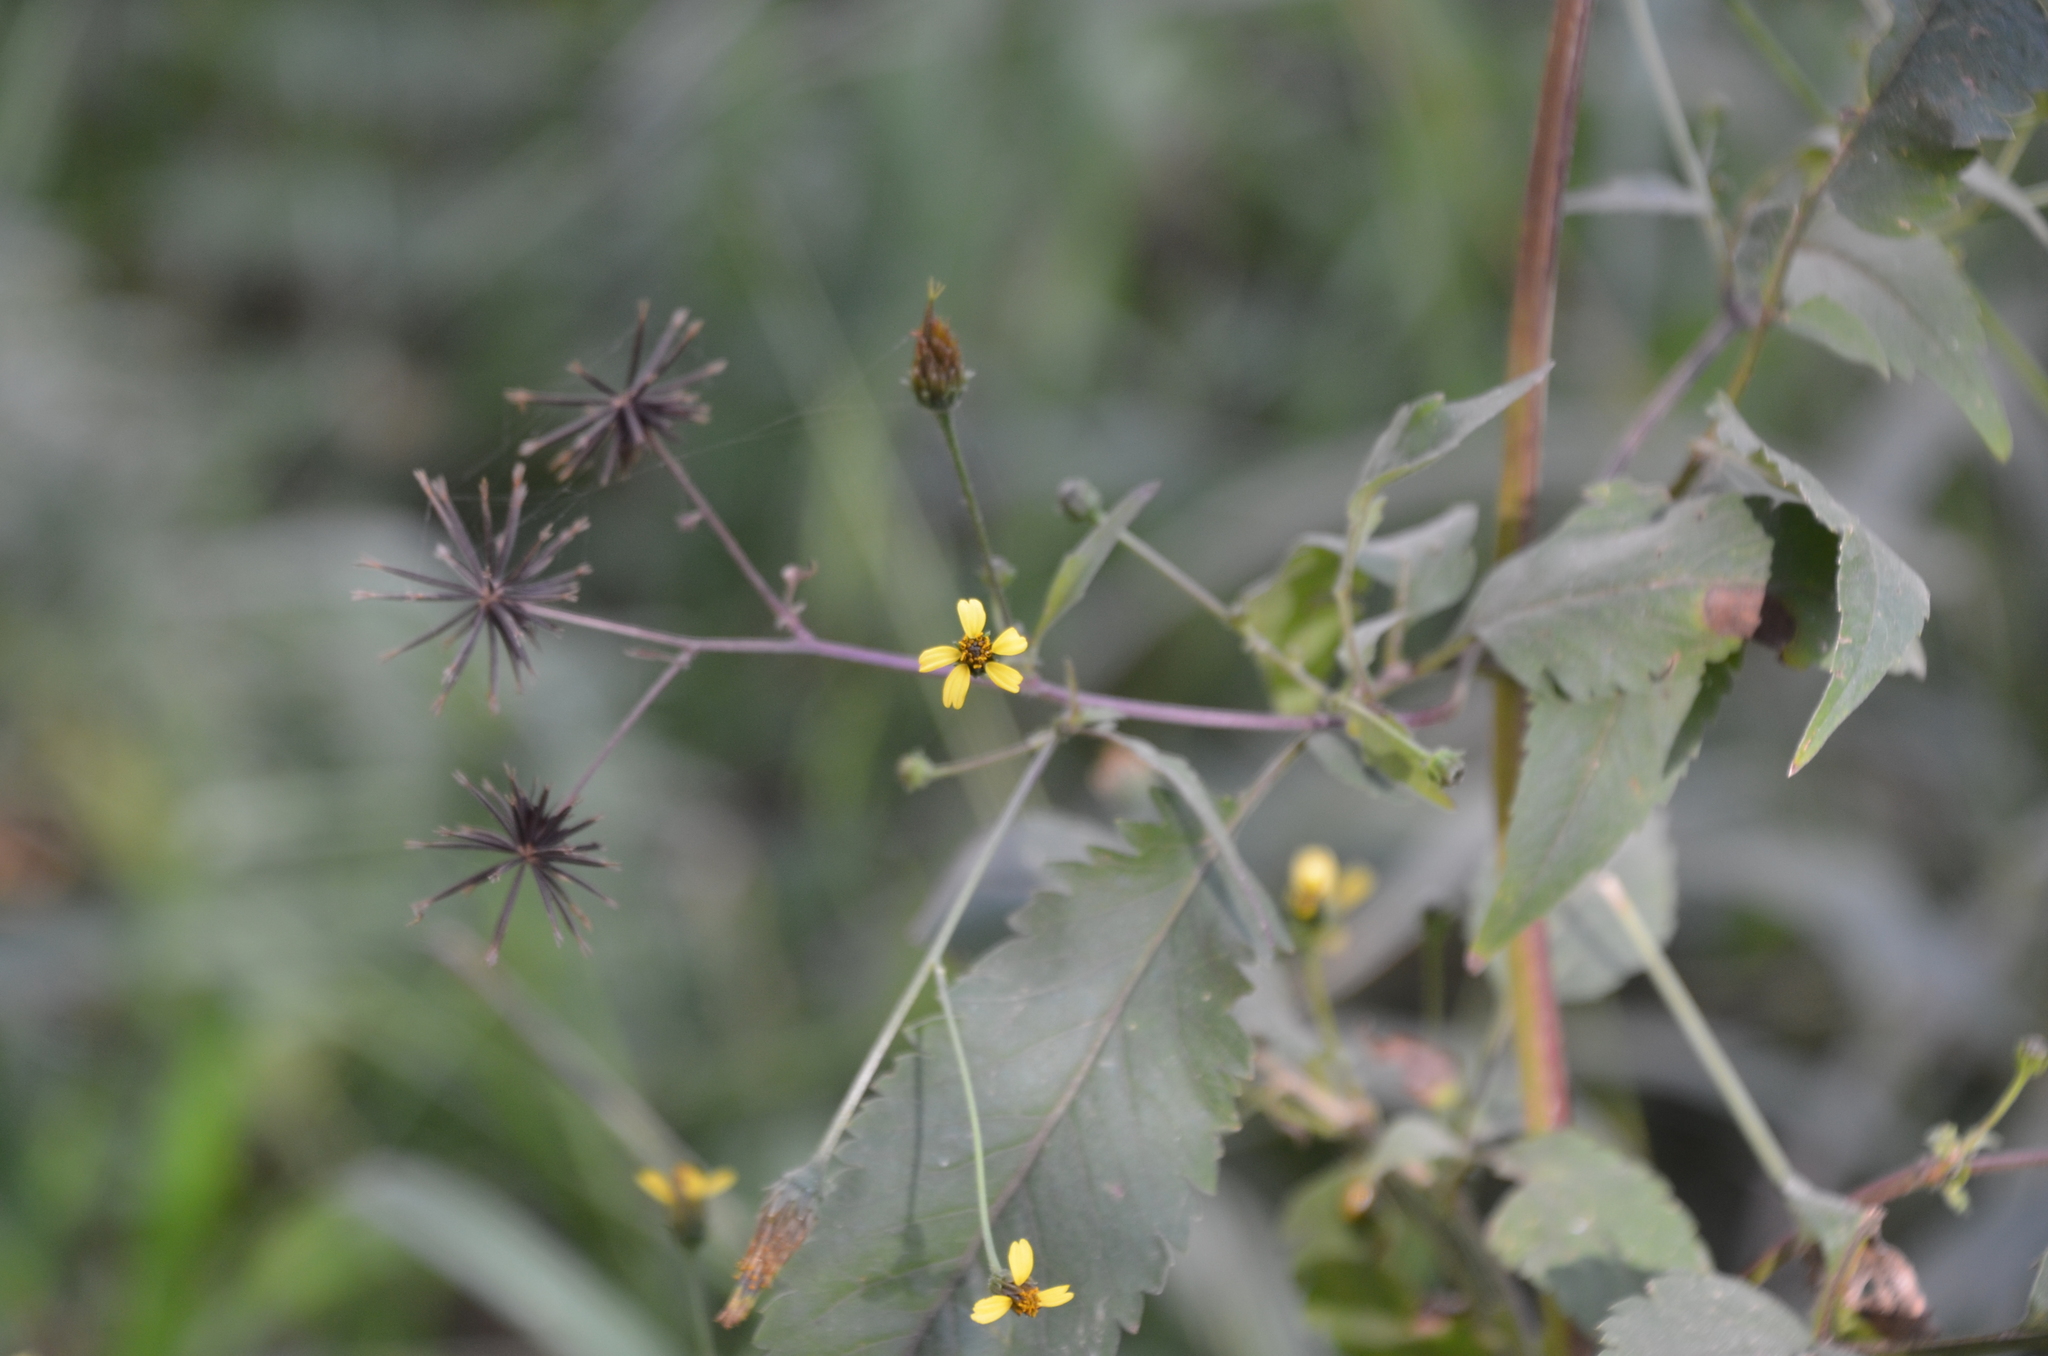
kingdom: Plantae
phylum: Tracheophyta
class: Magnoliopsida
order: Asterales
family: Asteraceae
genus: Bidens
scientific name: Bidens subalternans
